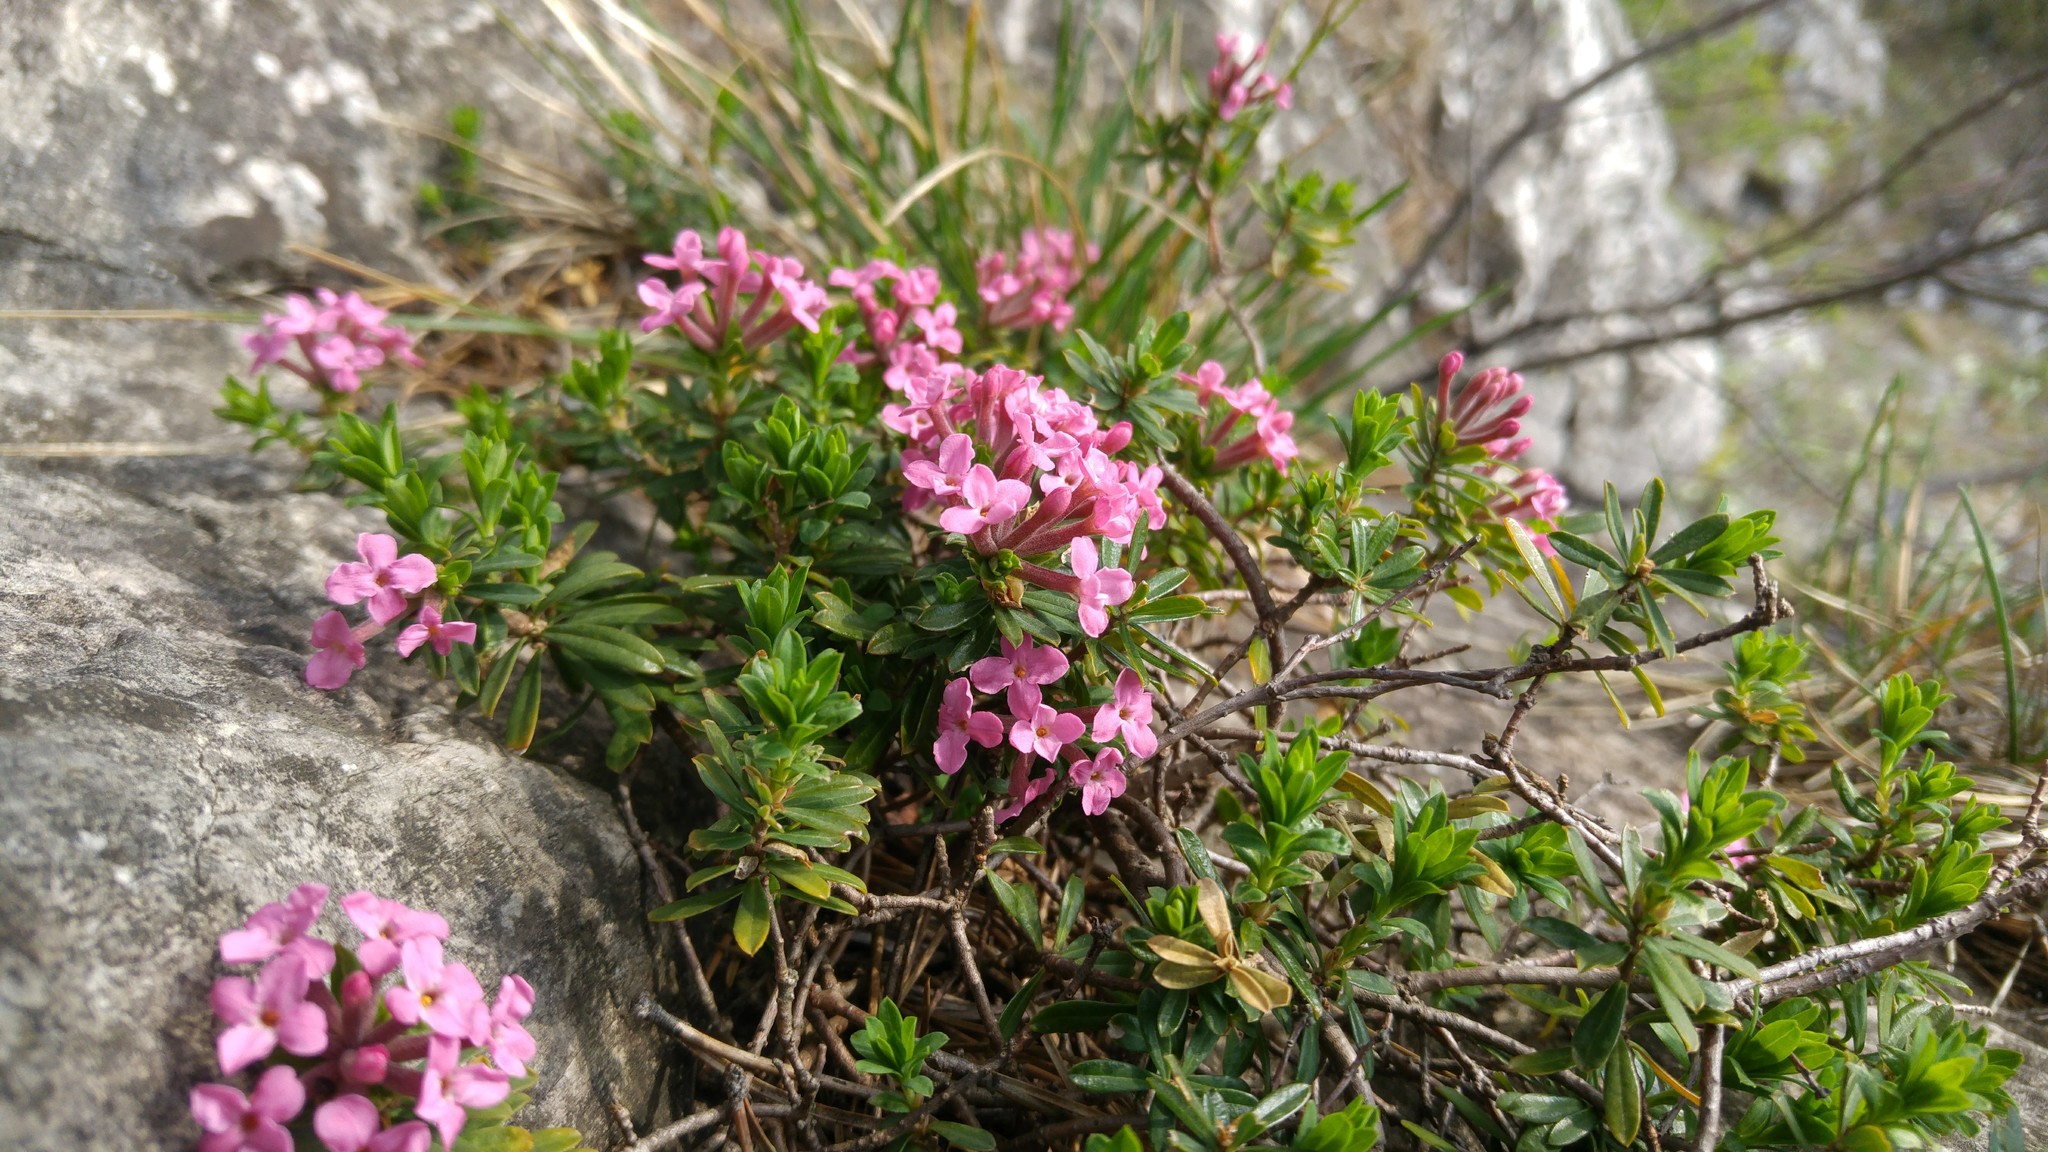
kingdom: Plantae
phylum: Tracheophyta
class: Magnoliopsida
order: Malvales
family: Thymelaeaceae
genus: Daphne
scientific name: Daphne cneorum
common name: Garland-flower
